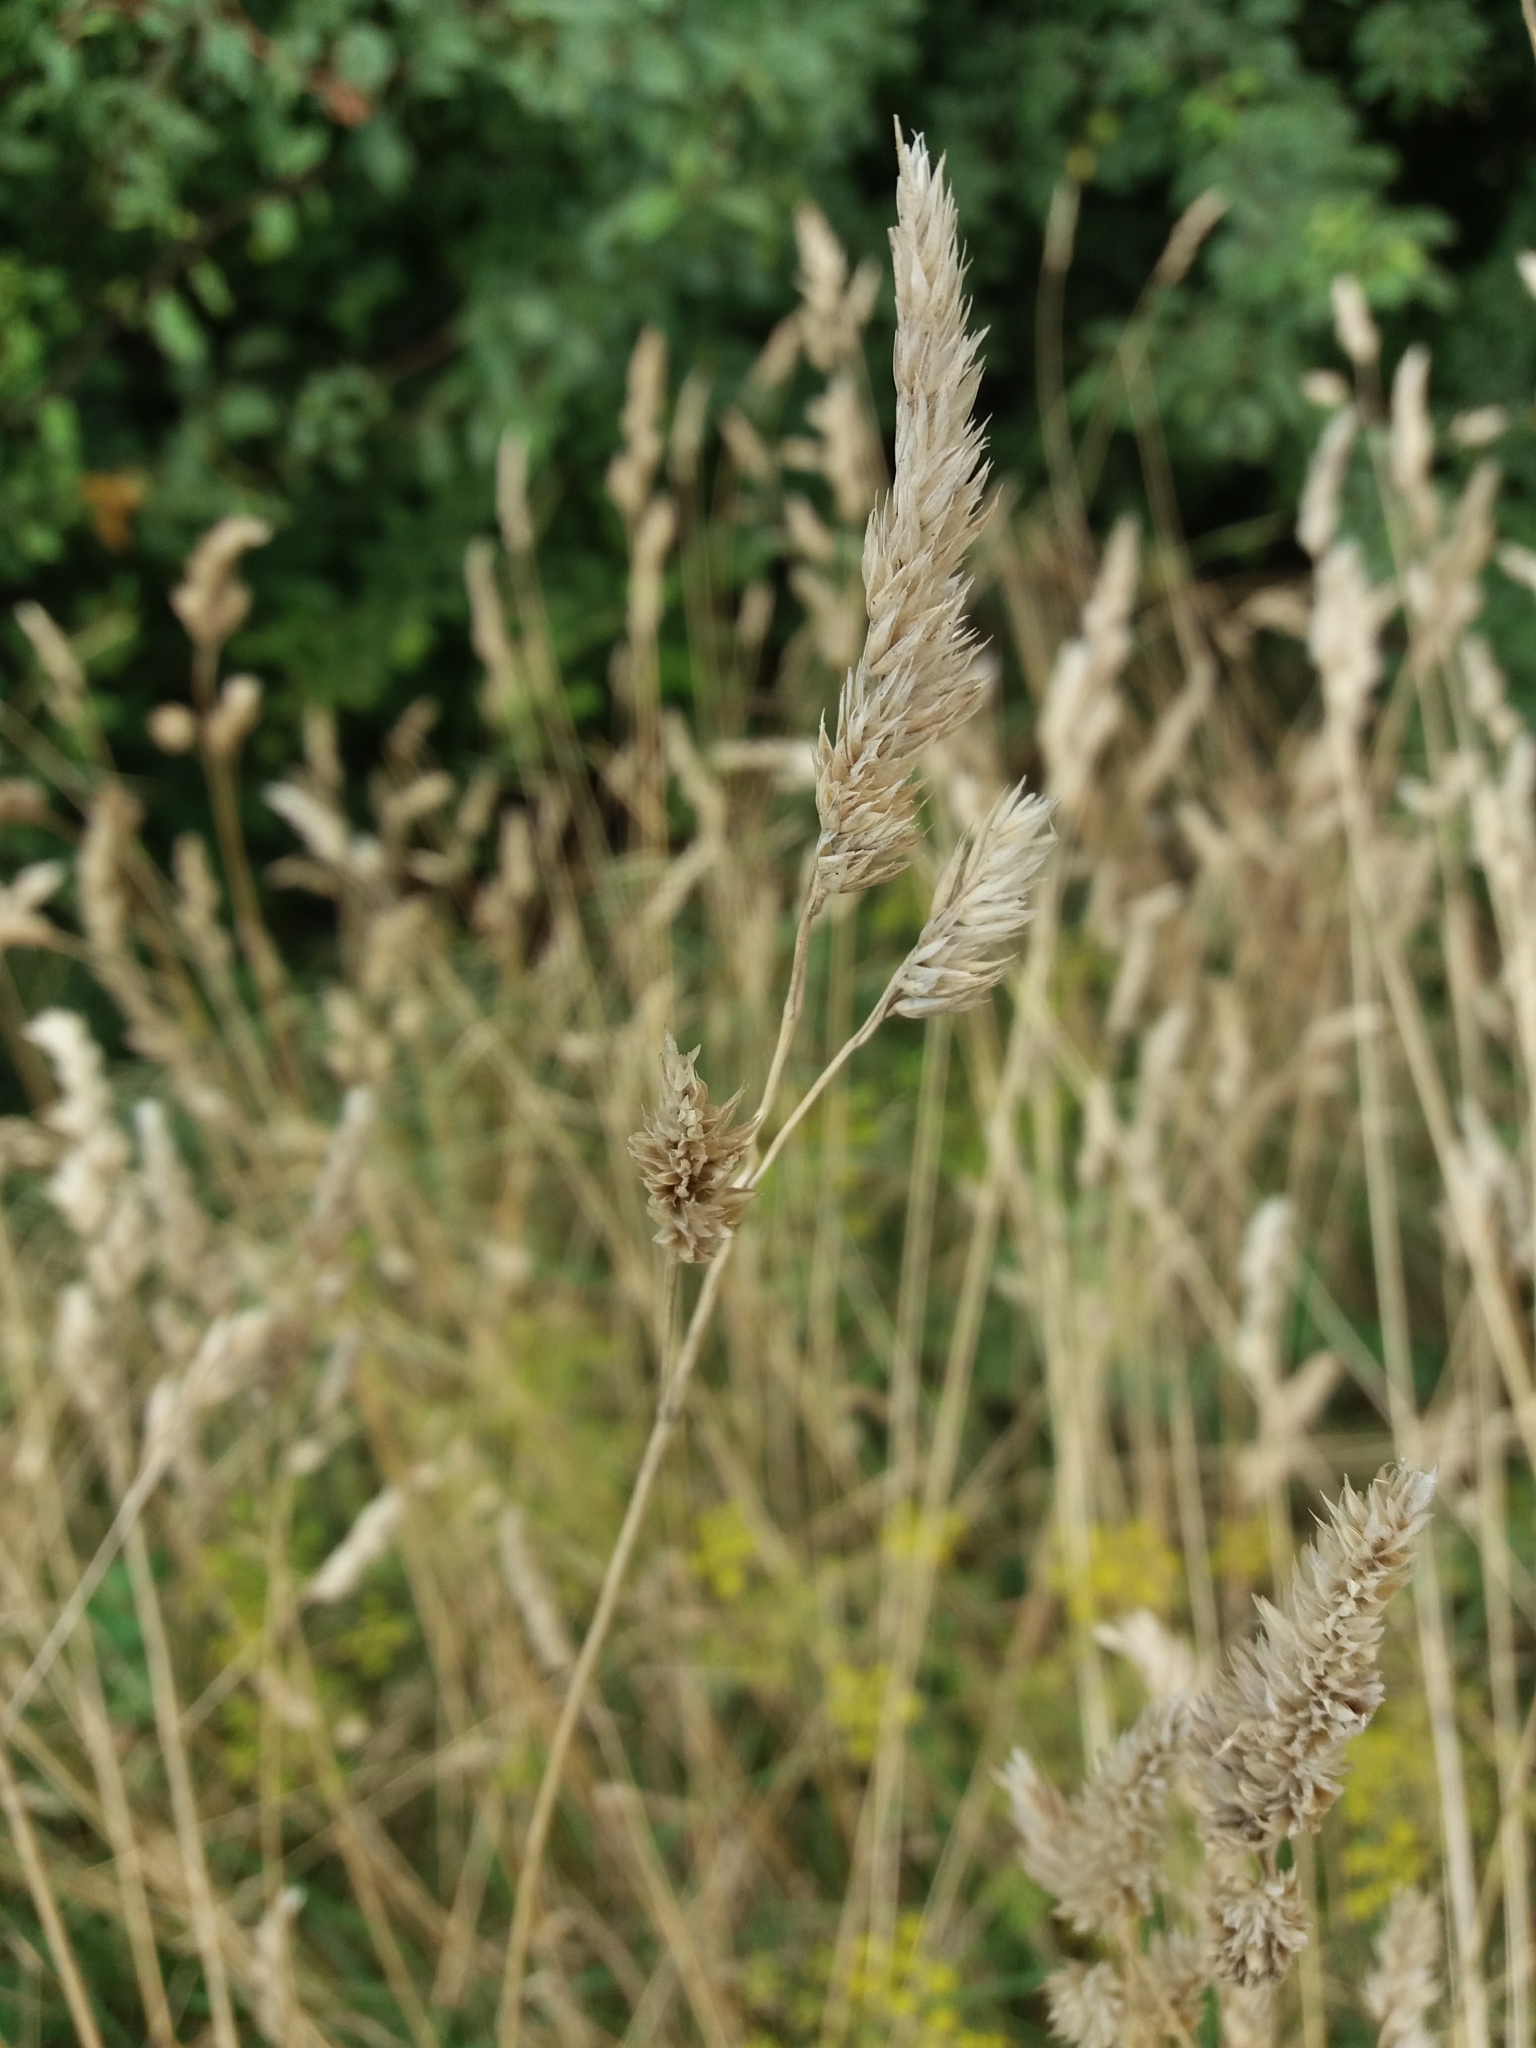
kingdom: Plantae
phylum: Tracheophyta
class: Liliopsida
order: Poales
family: Poaceae
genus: Dactylis
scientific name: Dactylis glomerata
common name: Orchardgrass
